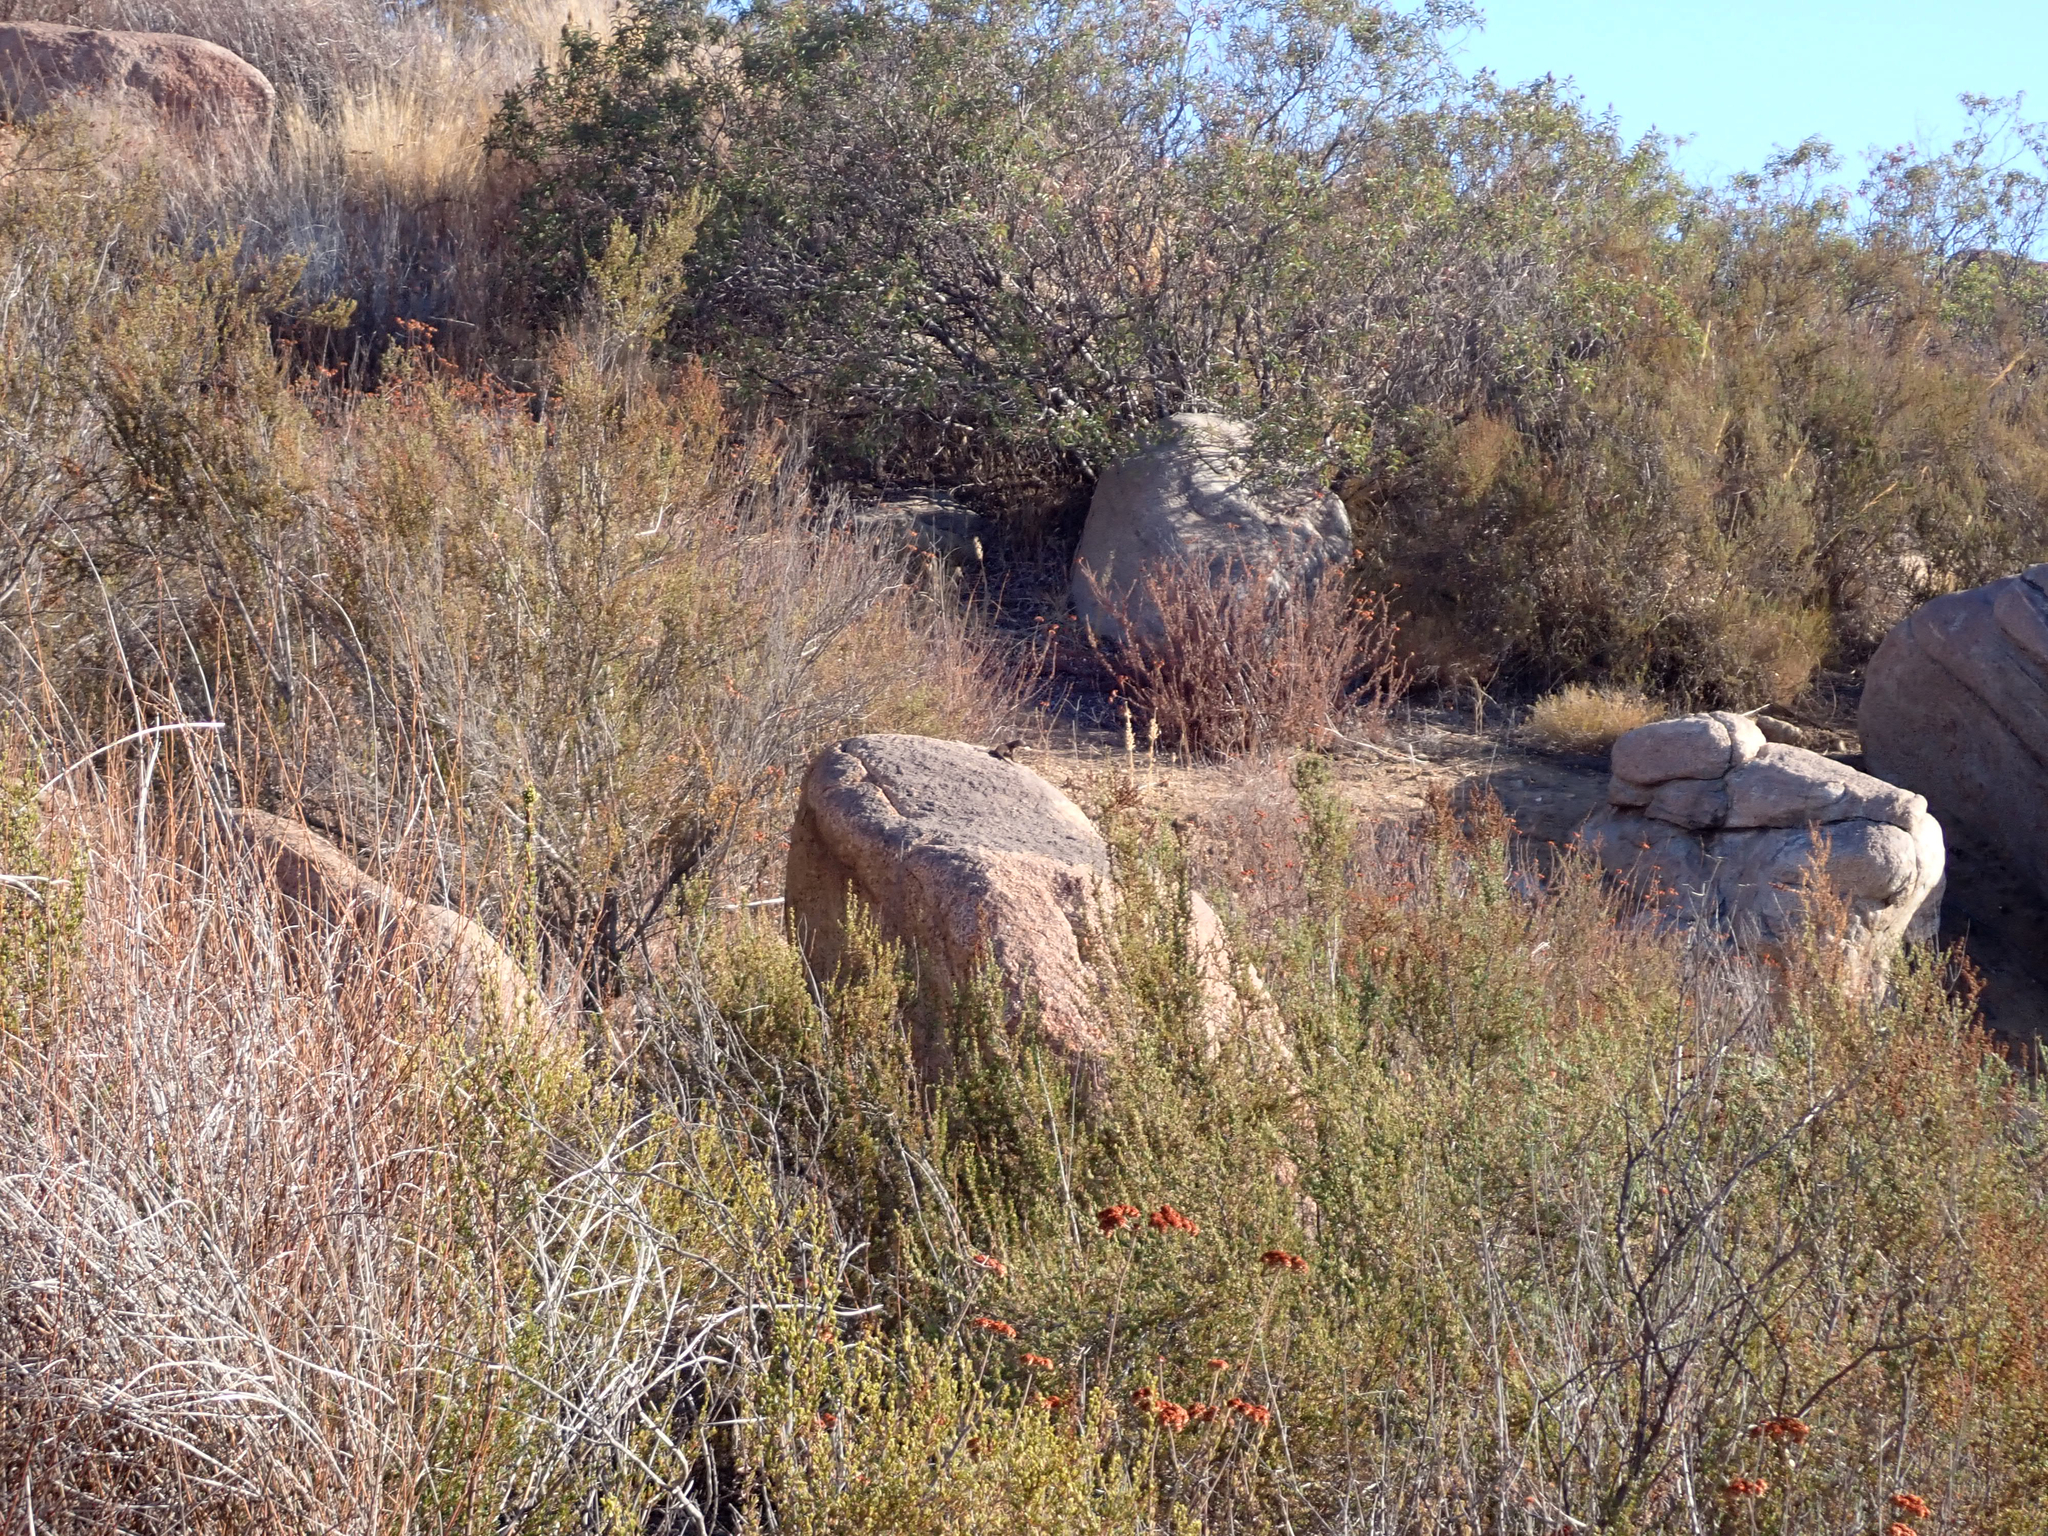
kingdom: Animalia
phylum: Chordata
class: Squamata
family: Phrynosomatidae
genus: Sceloporus
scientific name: Sceloporus orcutti
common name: Granite spiny lizard
